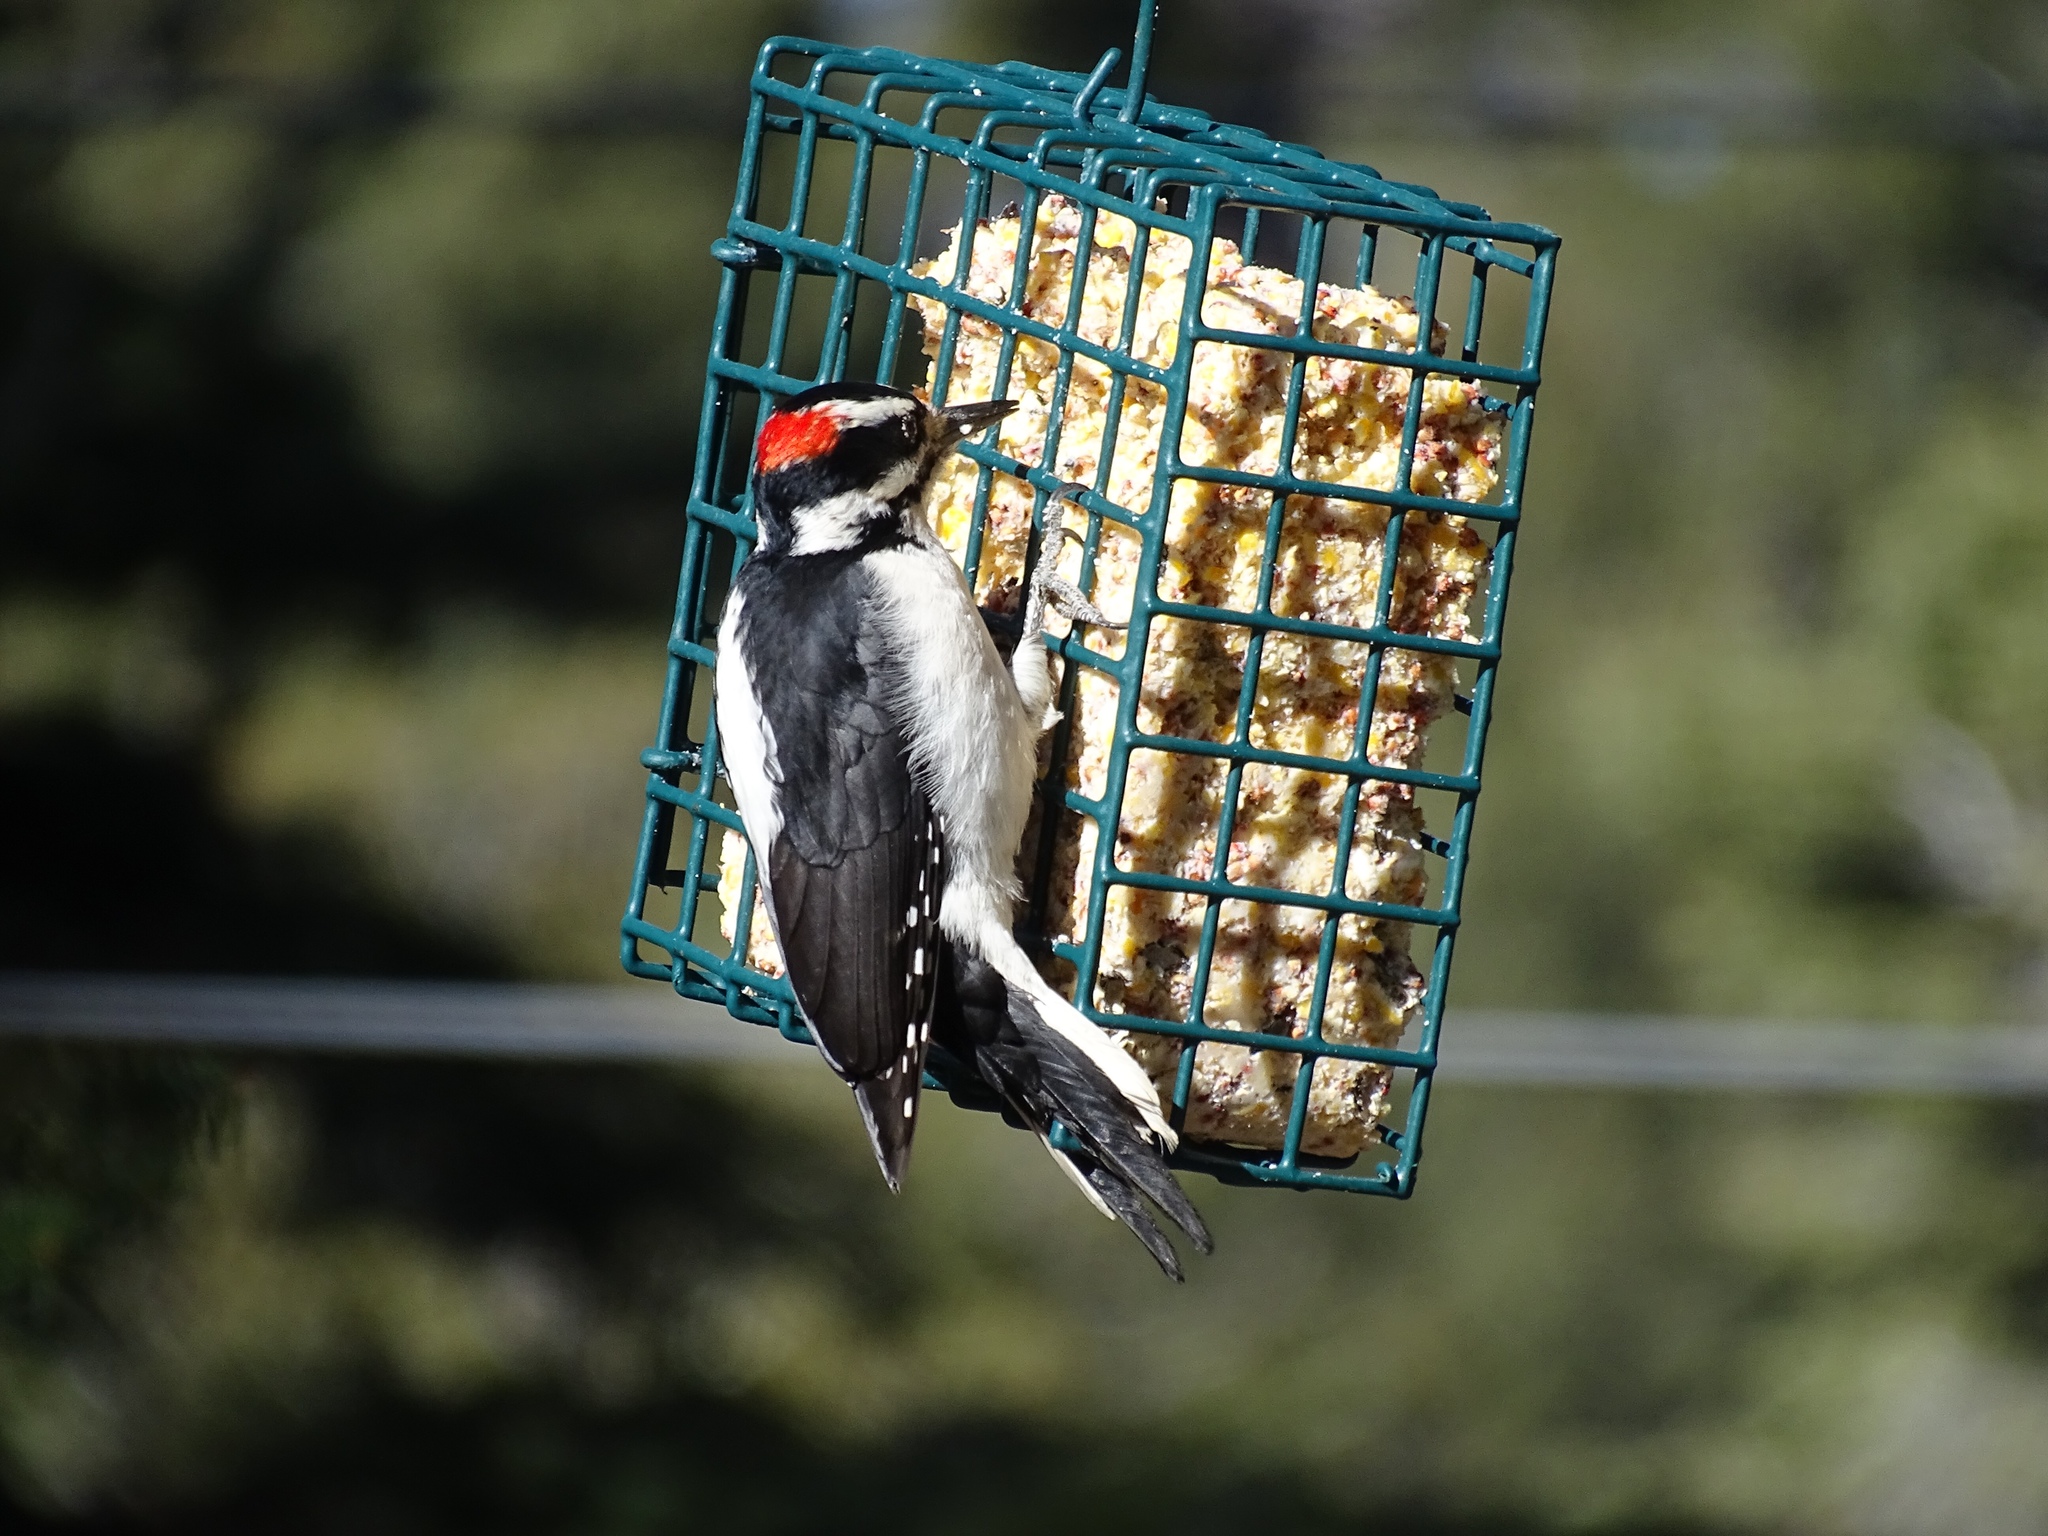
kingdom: Animalia
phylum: Chordata
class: Aves
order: Piciformes
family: Picidae
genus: Leuconotopicus
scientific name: Leuconotopicus villosus
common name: Hairy woodpecker
